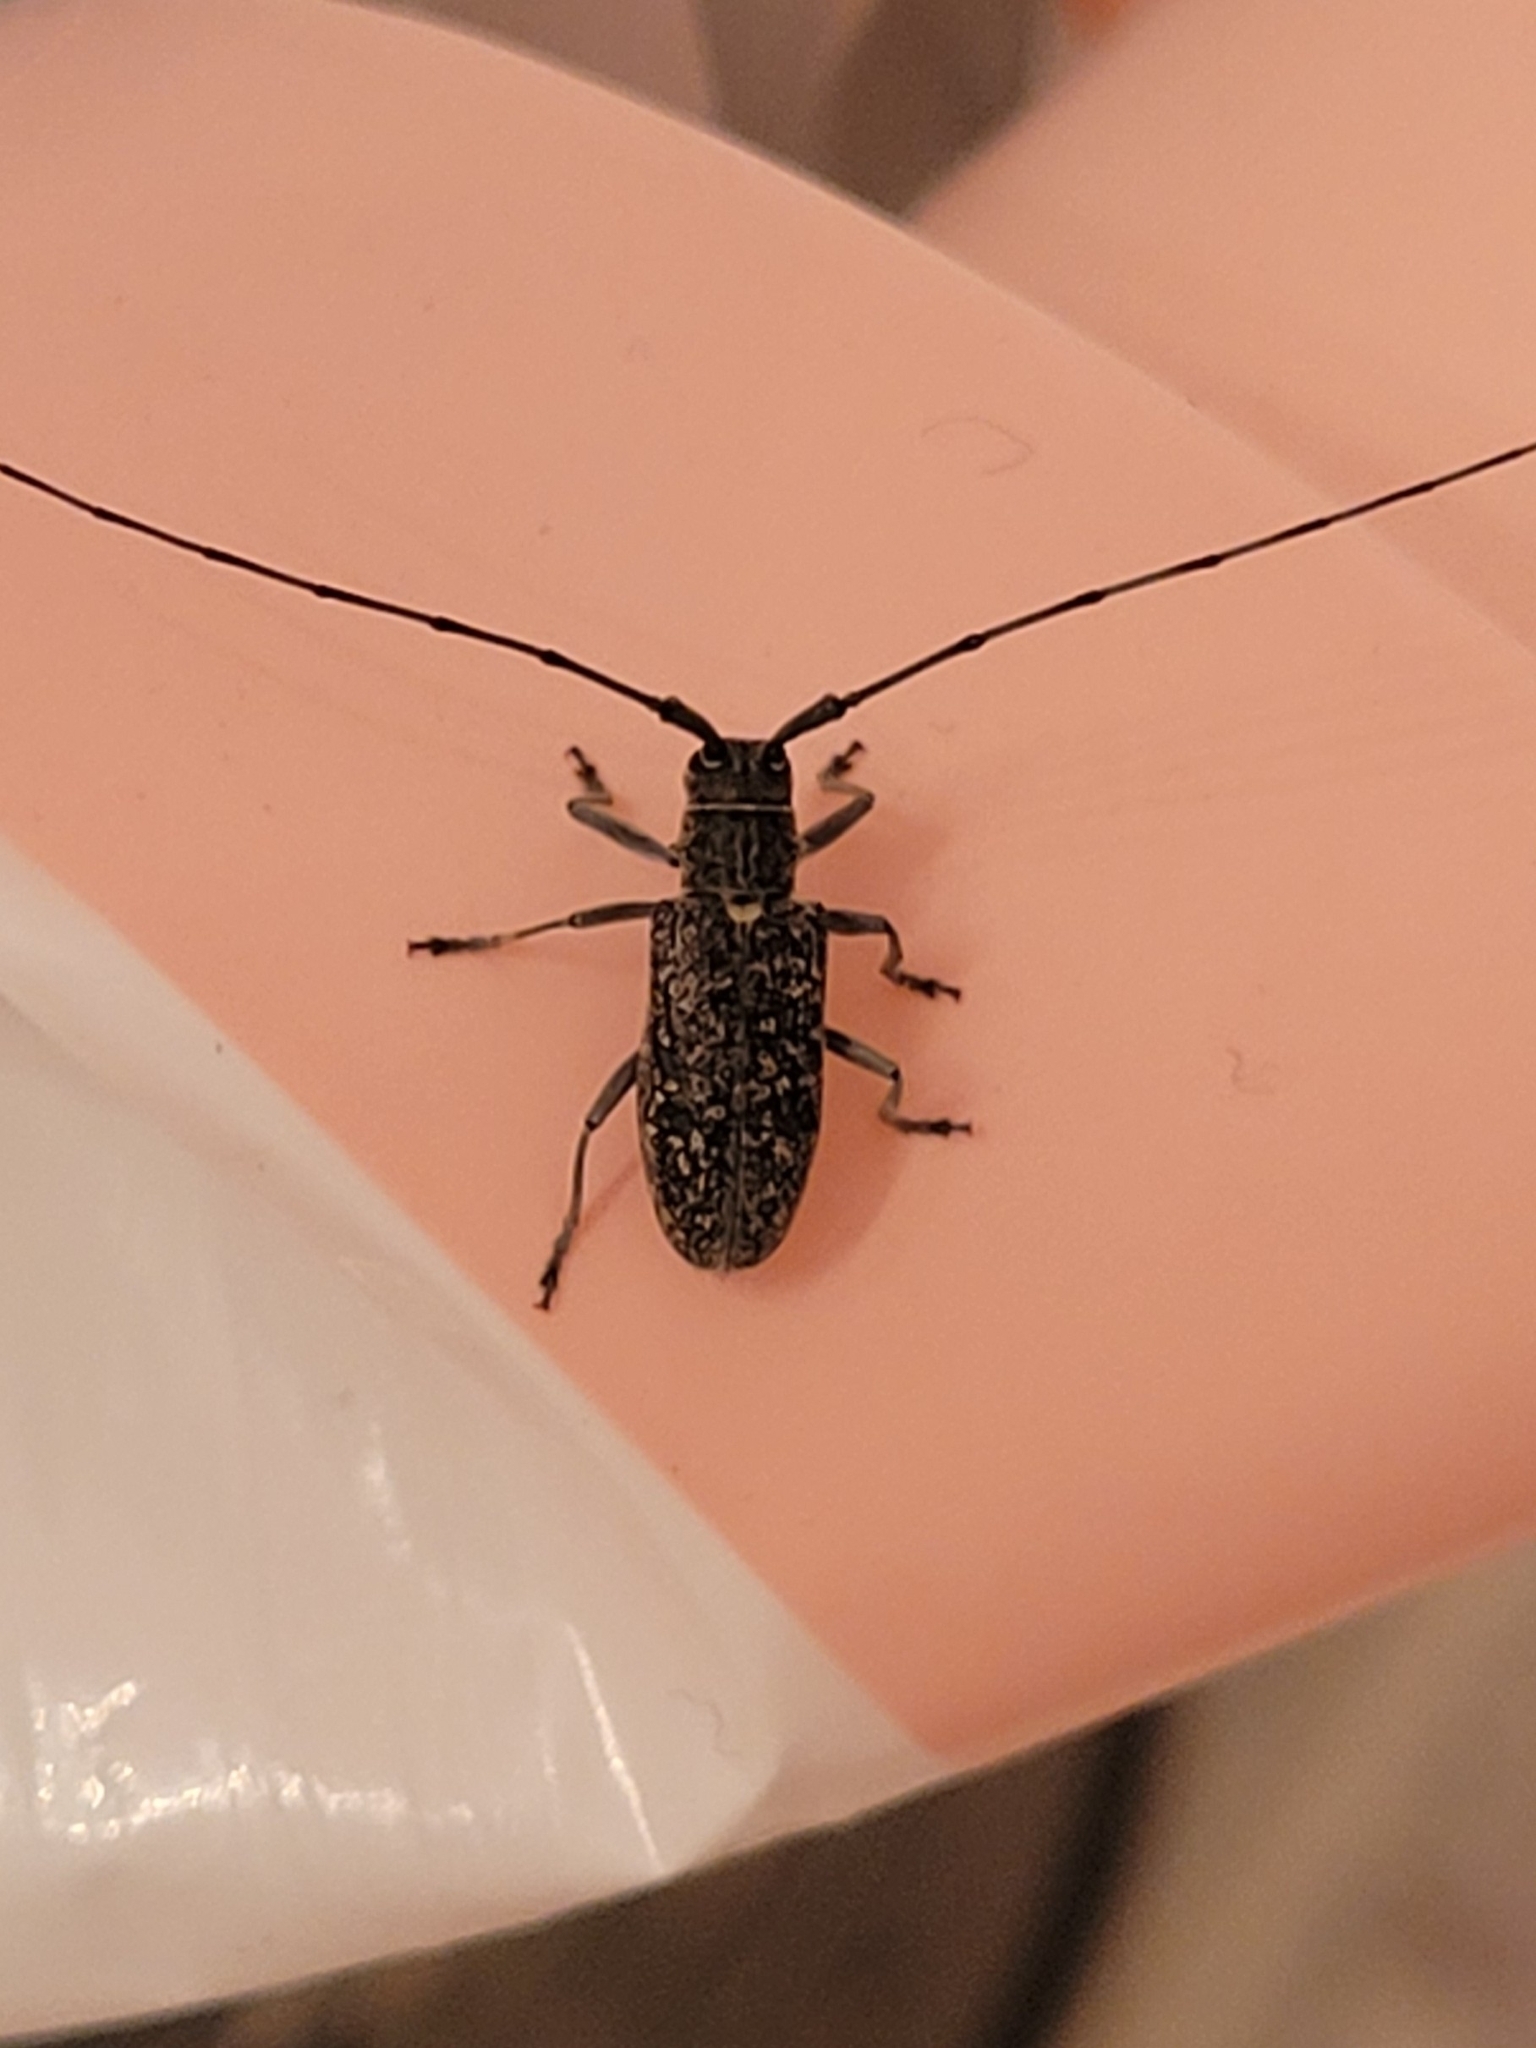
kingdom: Animalia
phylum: Arthropoda
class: Insecta
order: Coleoptera
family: Cerambycidae
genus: Monochamus
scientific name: Monochamus scutellatus
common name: White-spotted sawyer beetle
